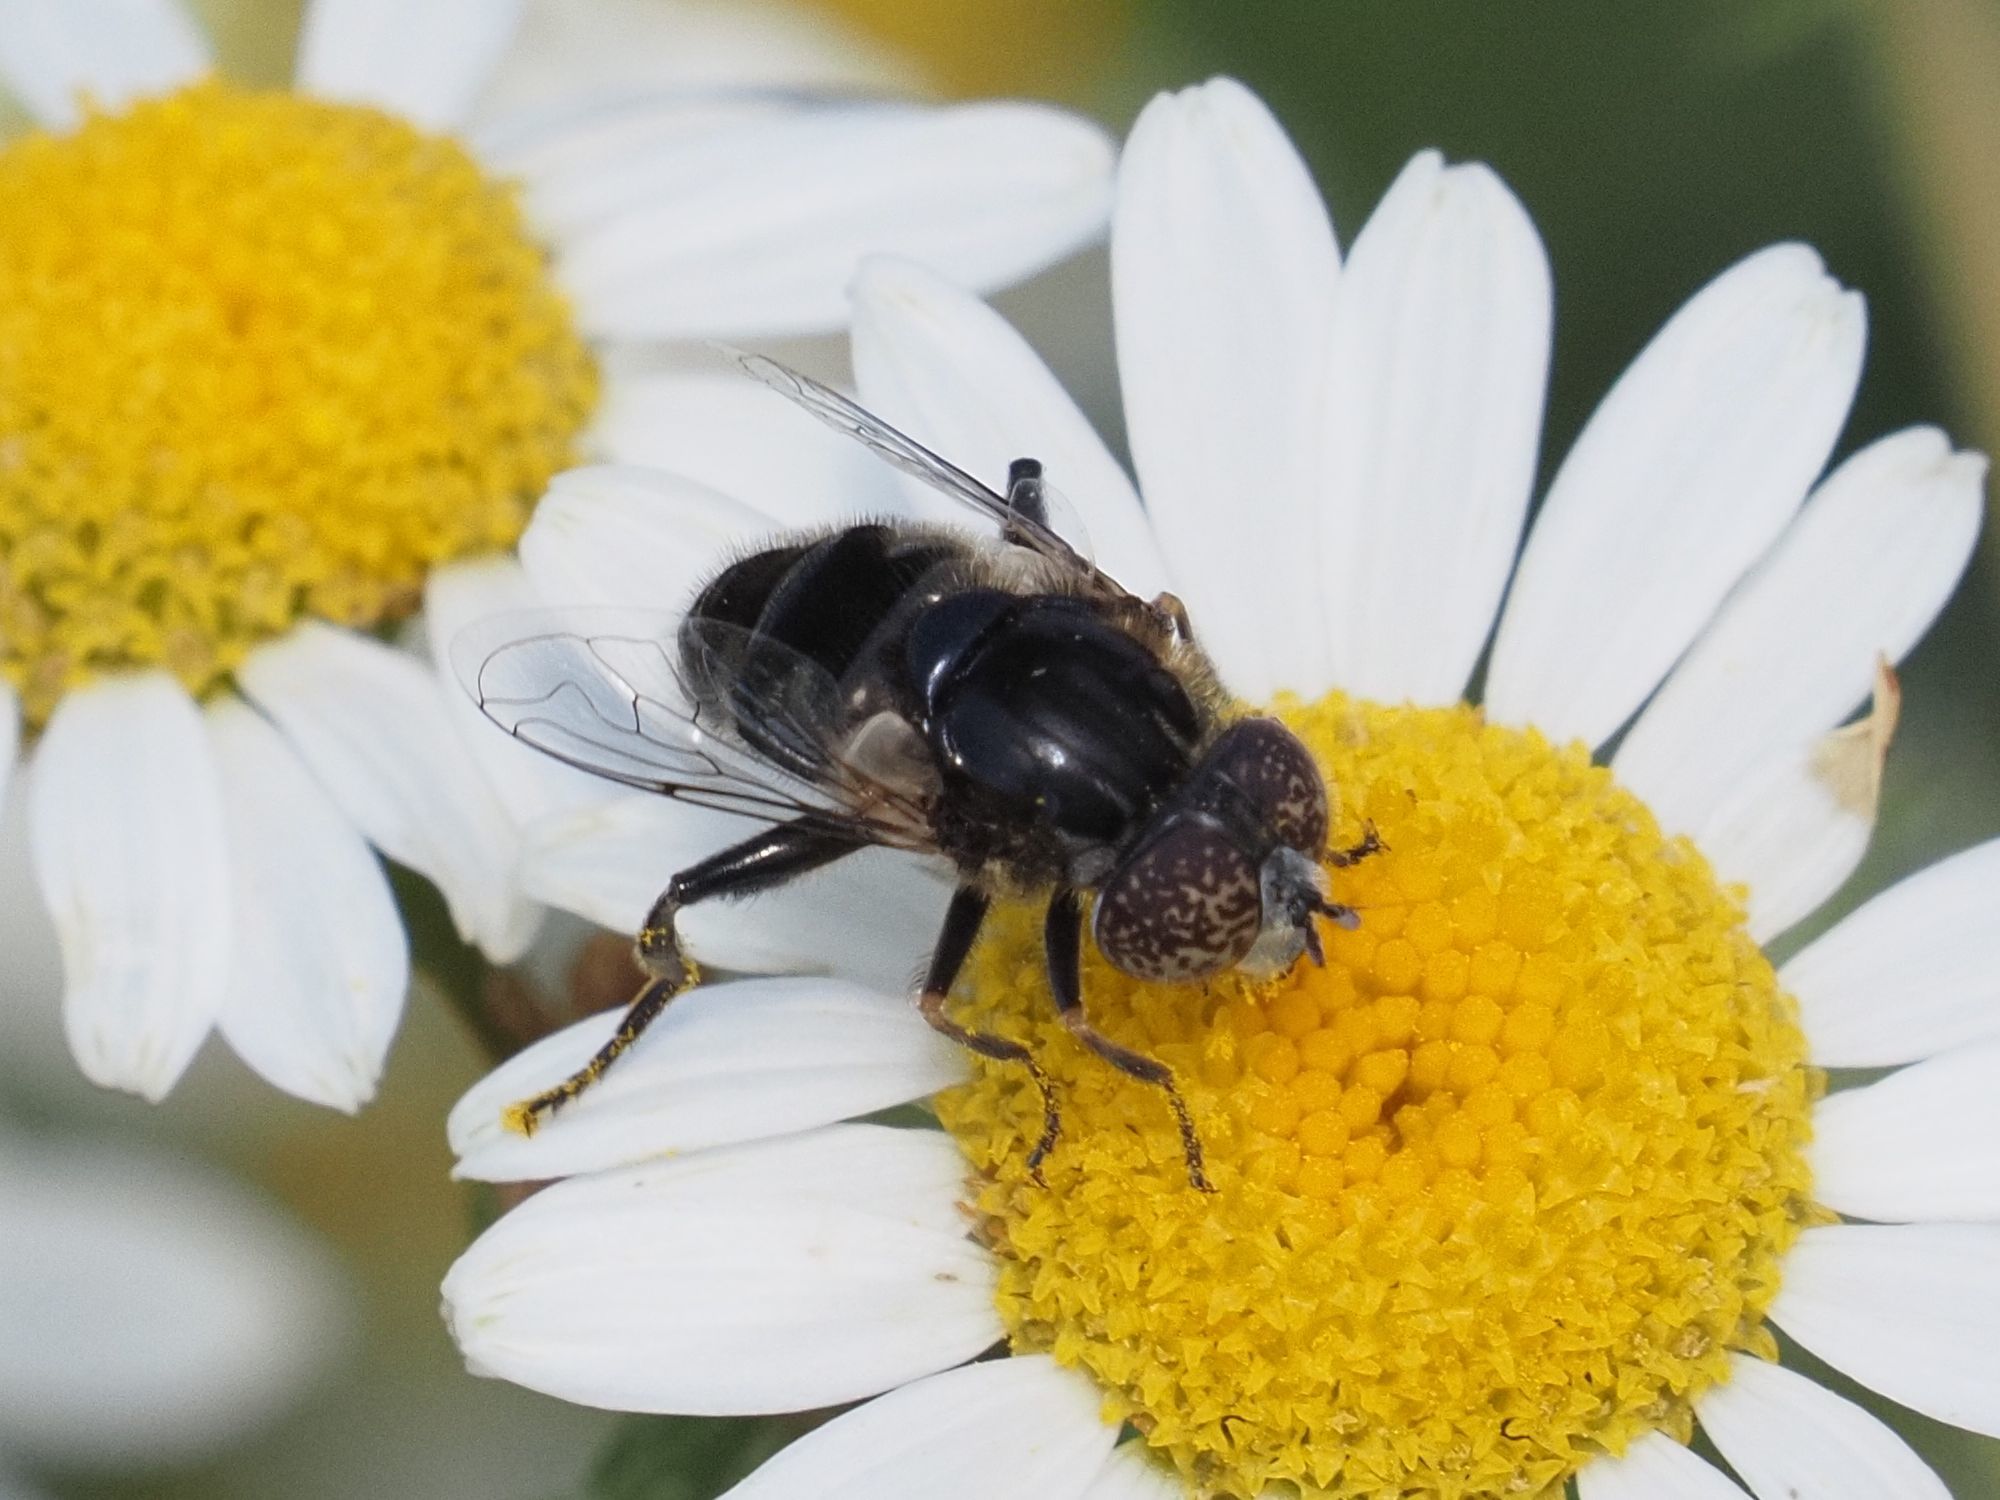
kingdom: Animalia
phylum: Arthropoda
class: Insecta
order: Diptera
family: Syrphidae
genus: Eristalinus
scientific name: Eristalinus sepulchralis
